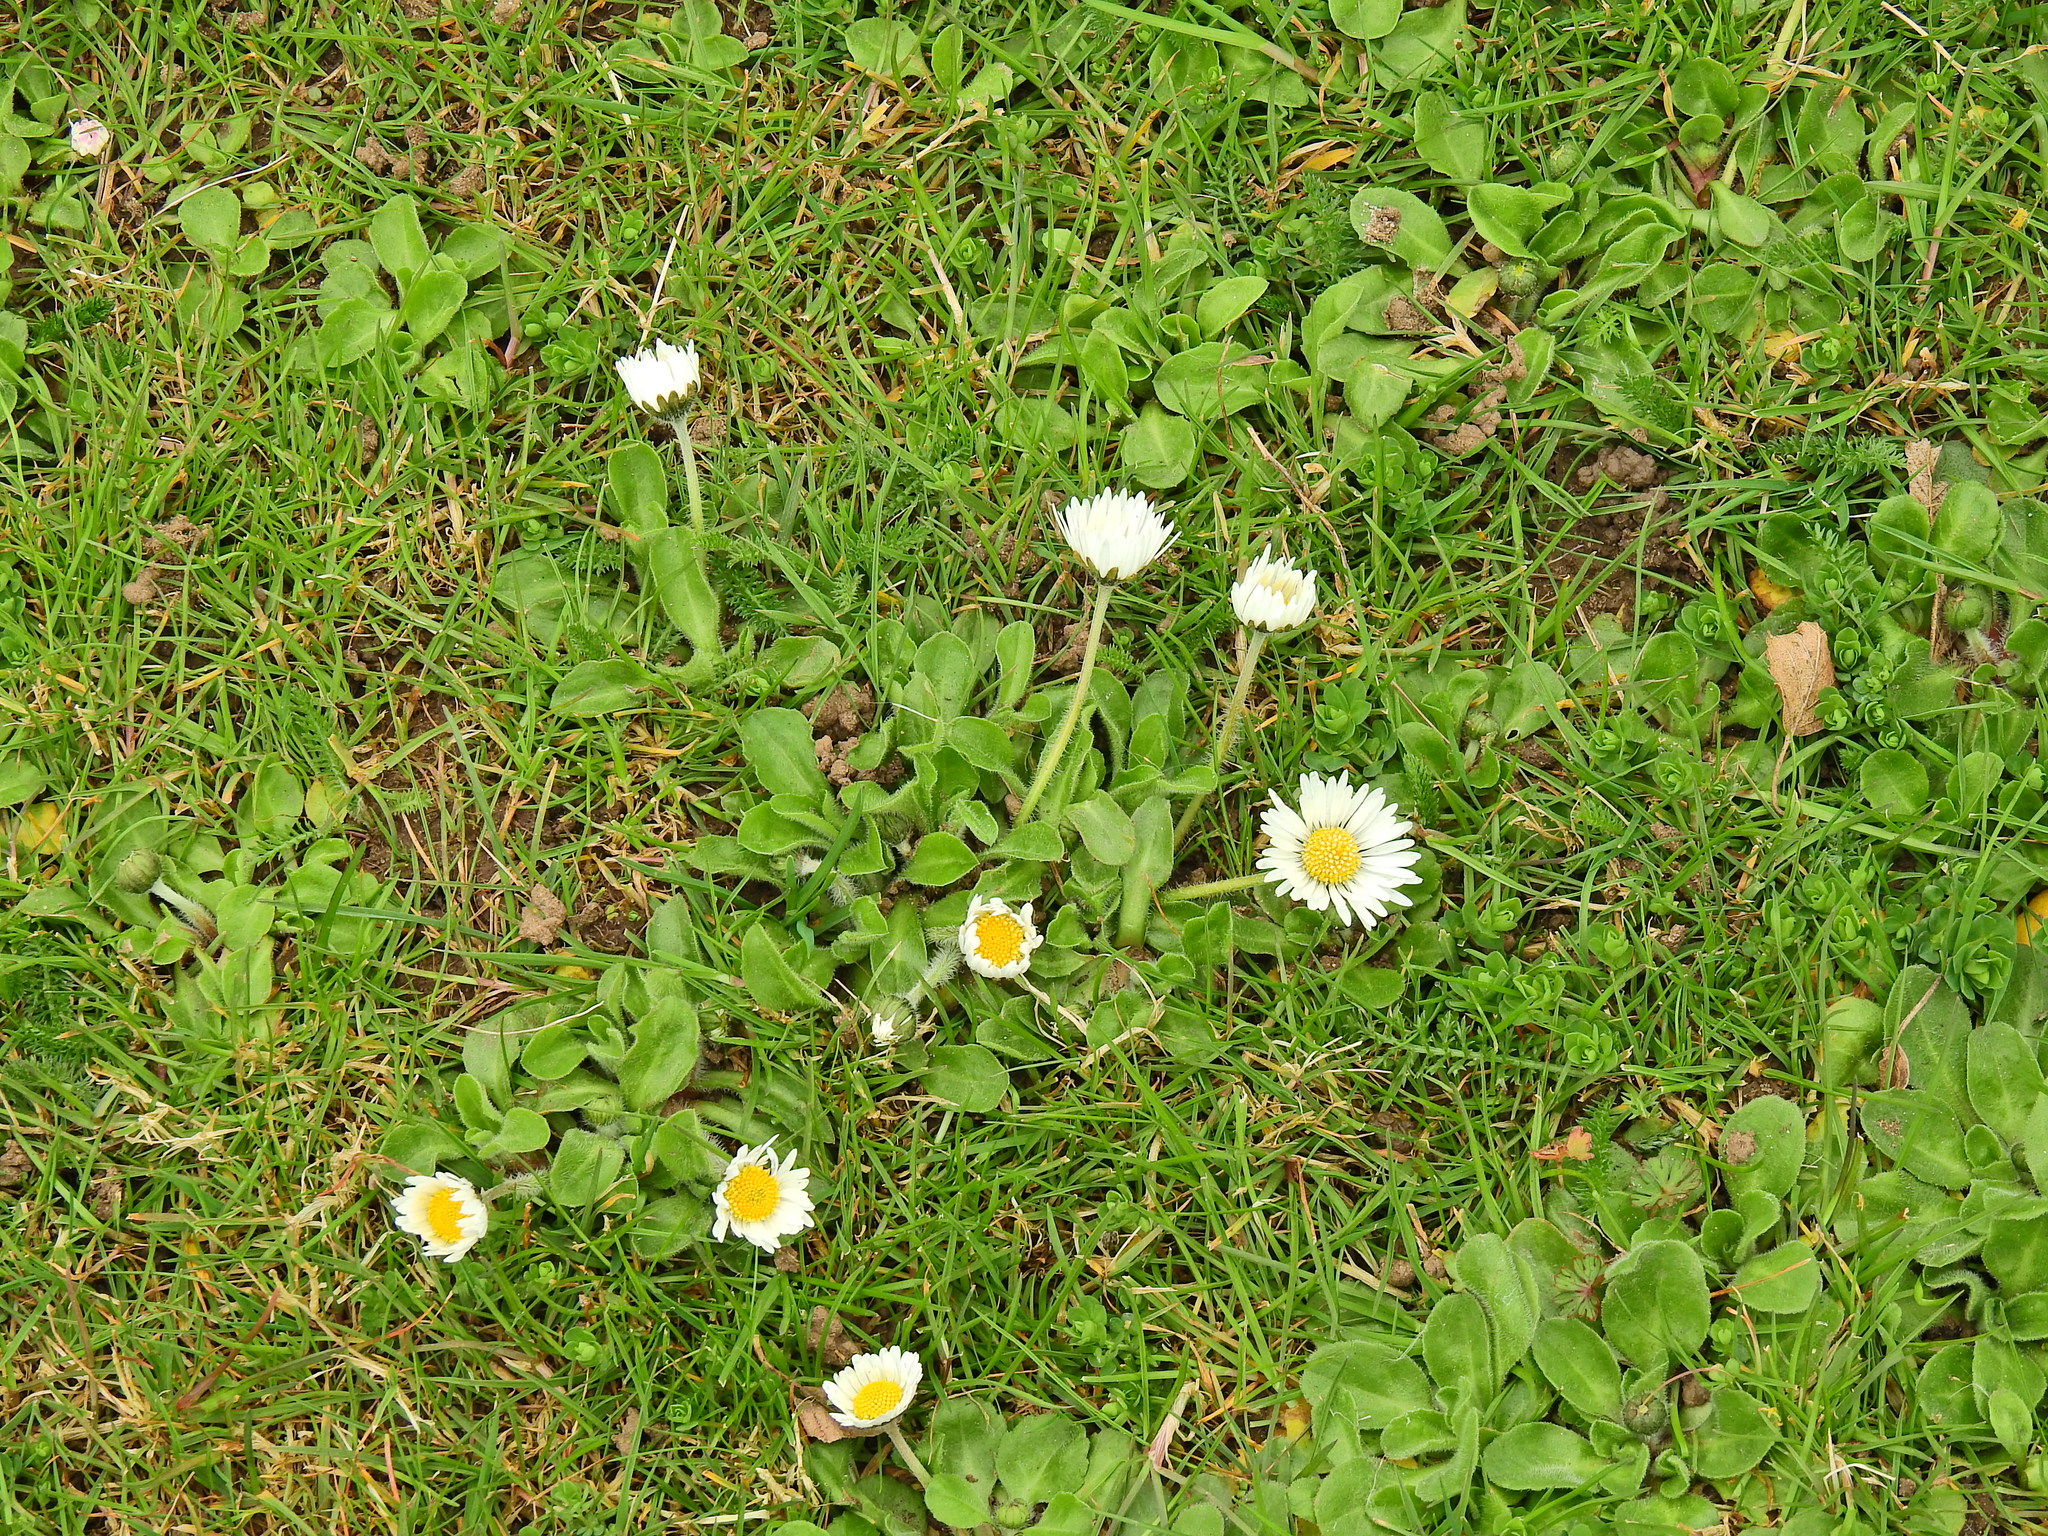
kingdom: Plantae
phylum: Tracheophyta
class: Magnoliopsida
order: Asterales
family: Asteraceae
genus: Bellis
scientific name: Bellis perennis
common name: Lawndaisy
